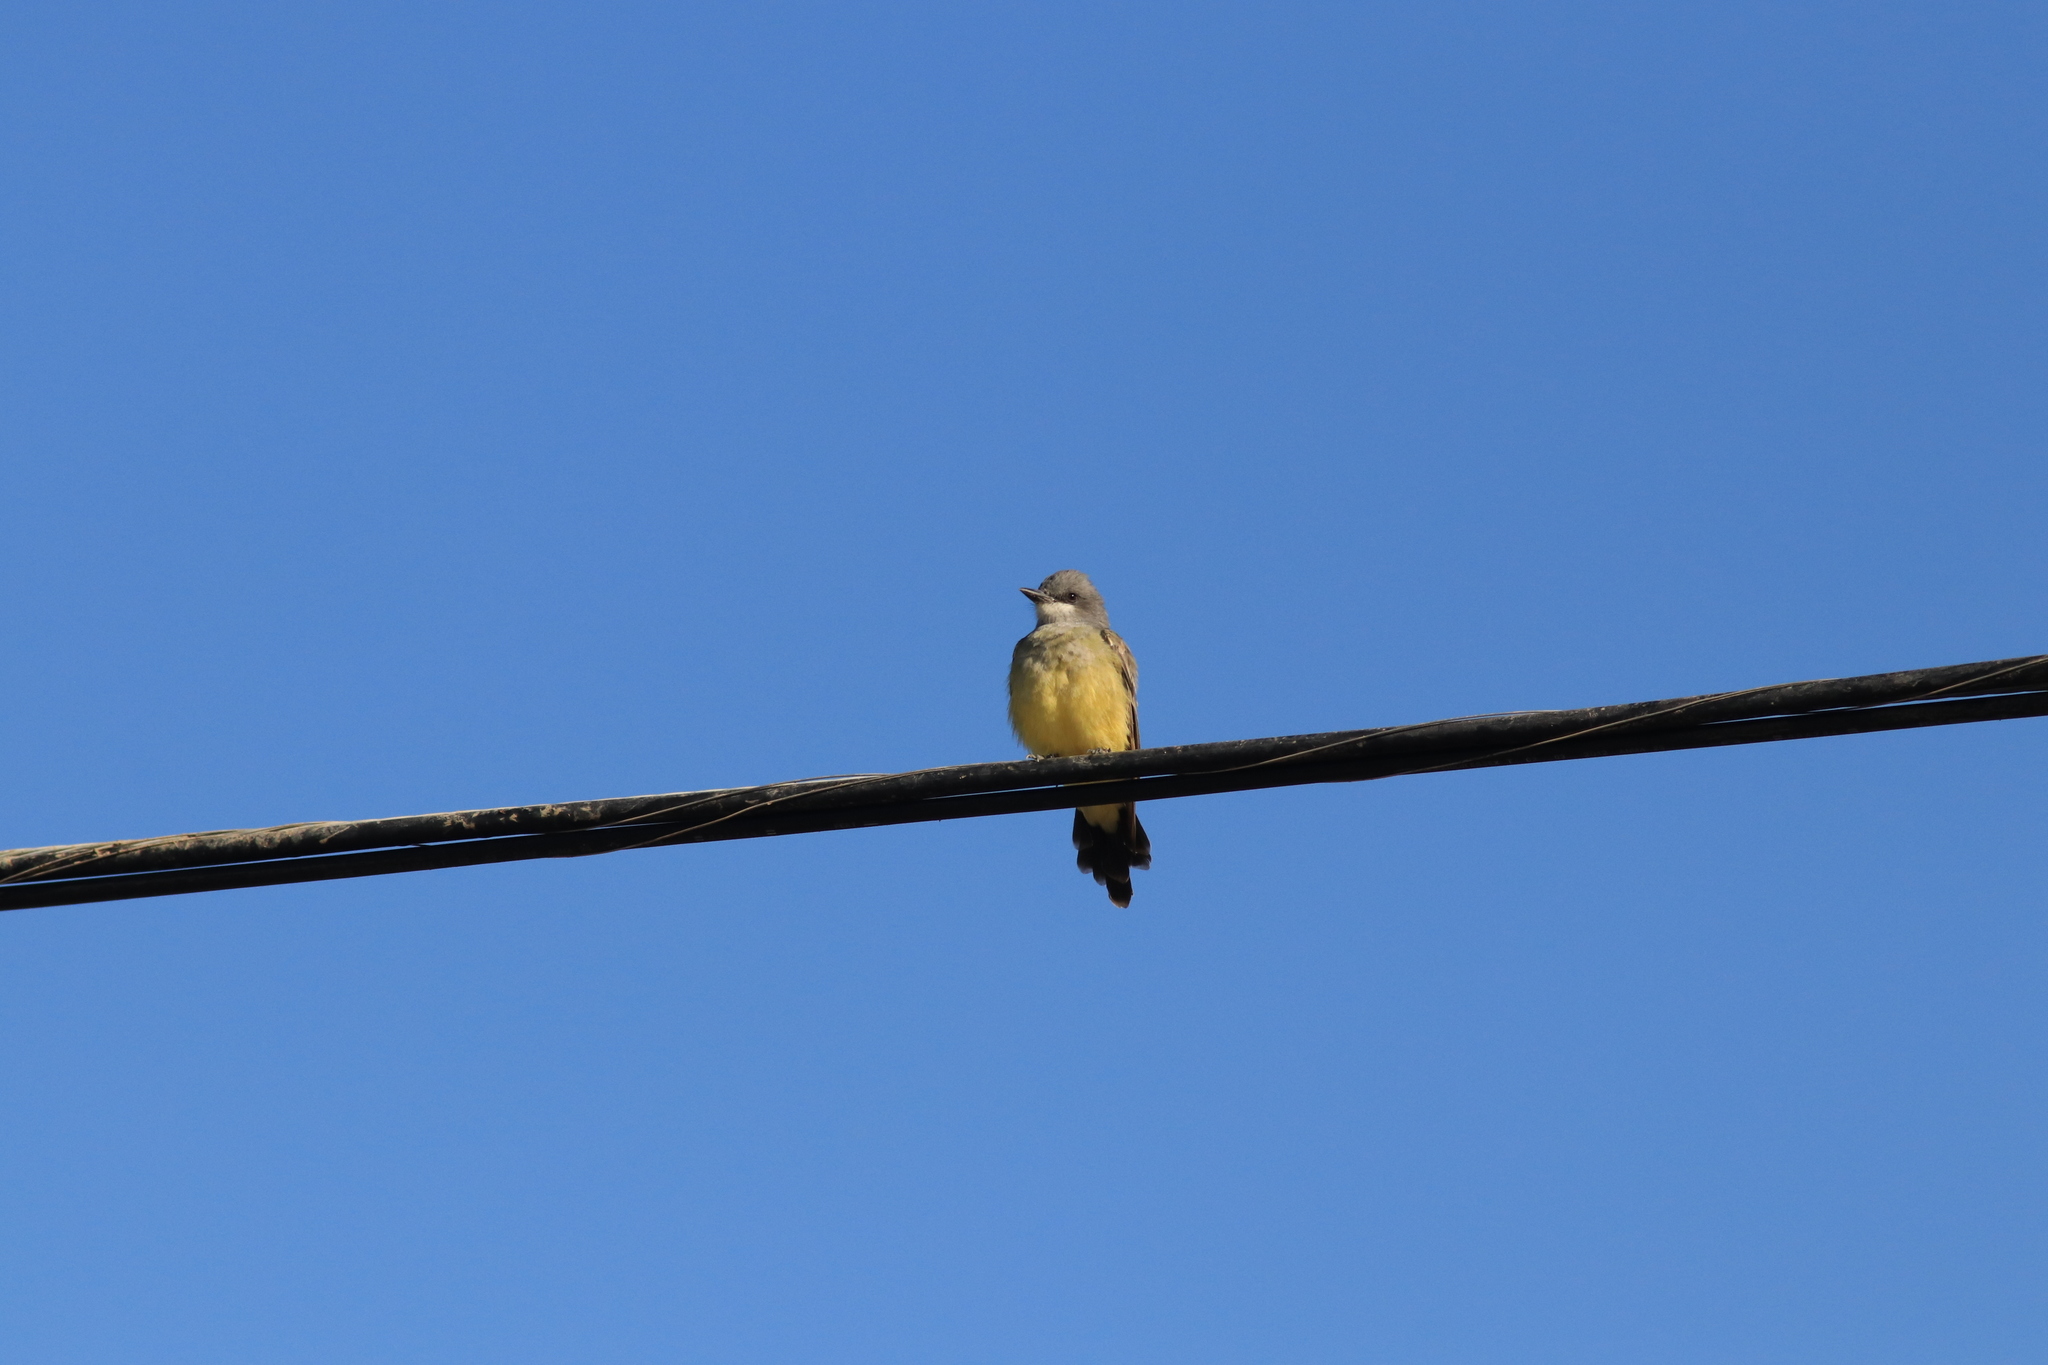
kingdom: Animalia
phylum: Chordata
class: Aves
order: Passeriformes
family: Tyrannidae
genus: Tyrannus
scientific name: Tyrannus vociferans
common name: Cassin's kingbird
